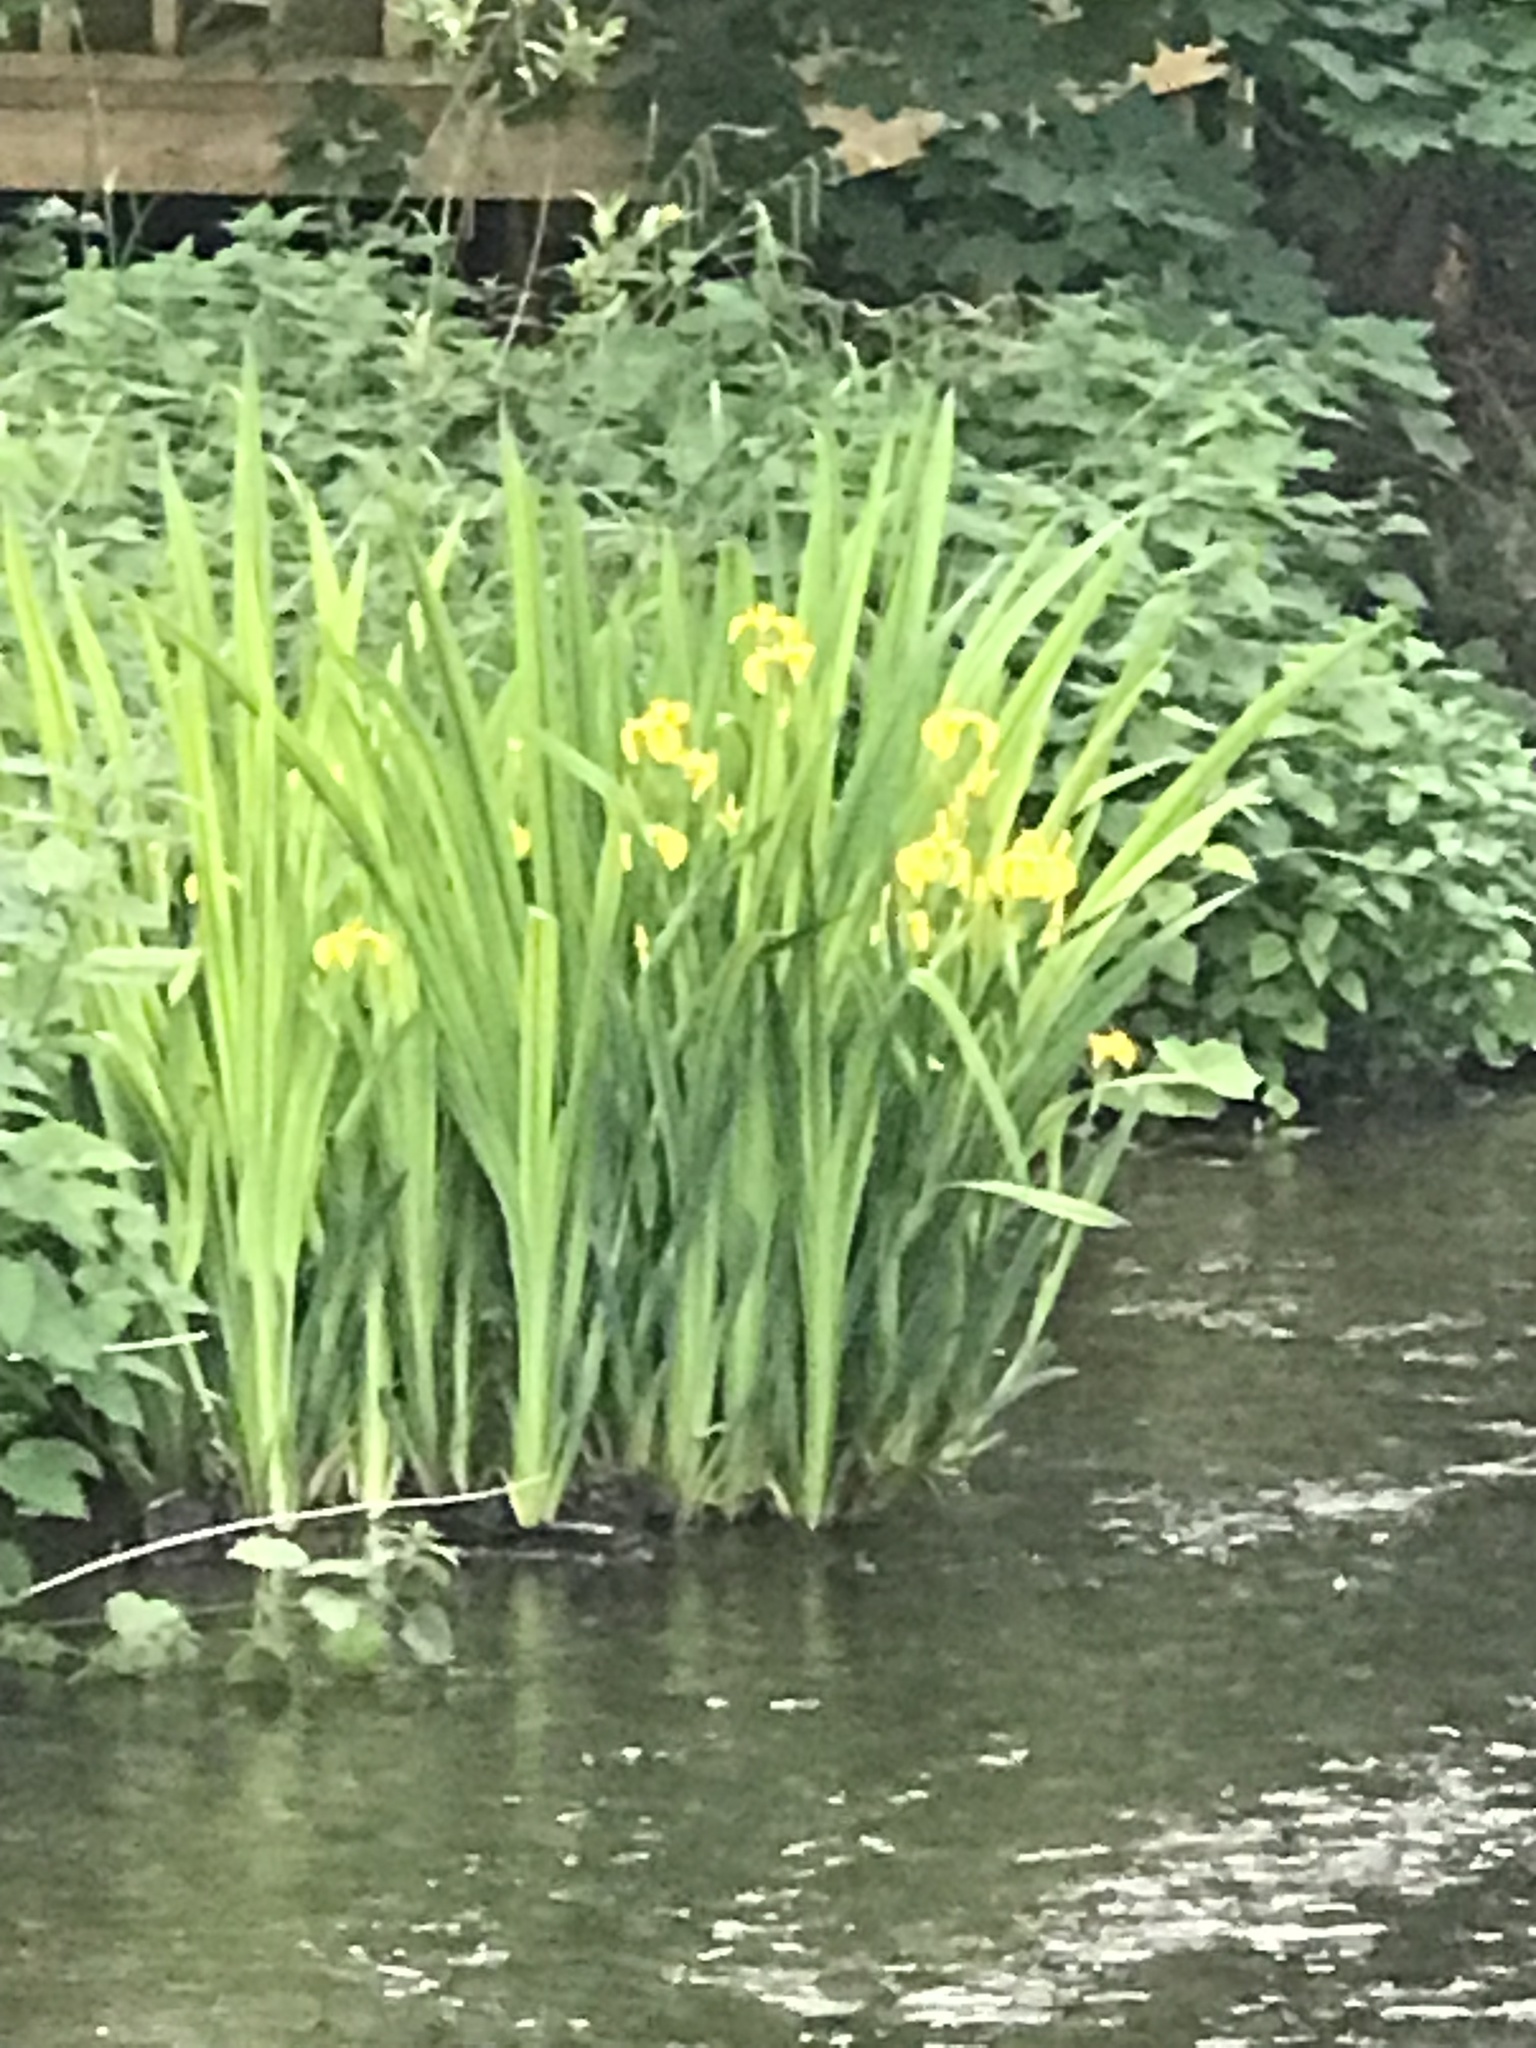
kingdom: Plantae
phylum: Tracheophyta
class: Liliopsida
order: Asparagales
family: Iridaceae
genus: Iris
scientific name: Iris pseudacorus
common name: Yellow flag
